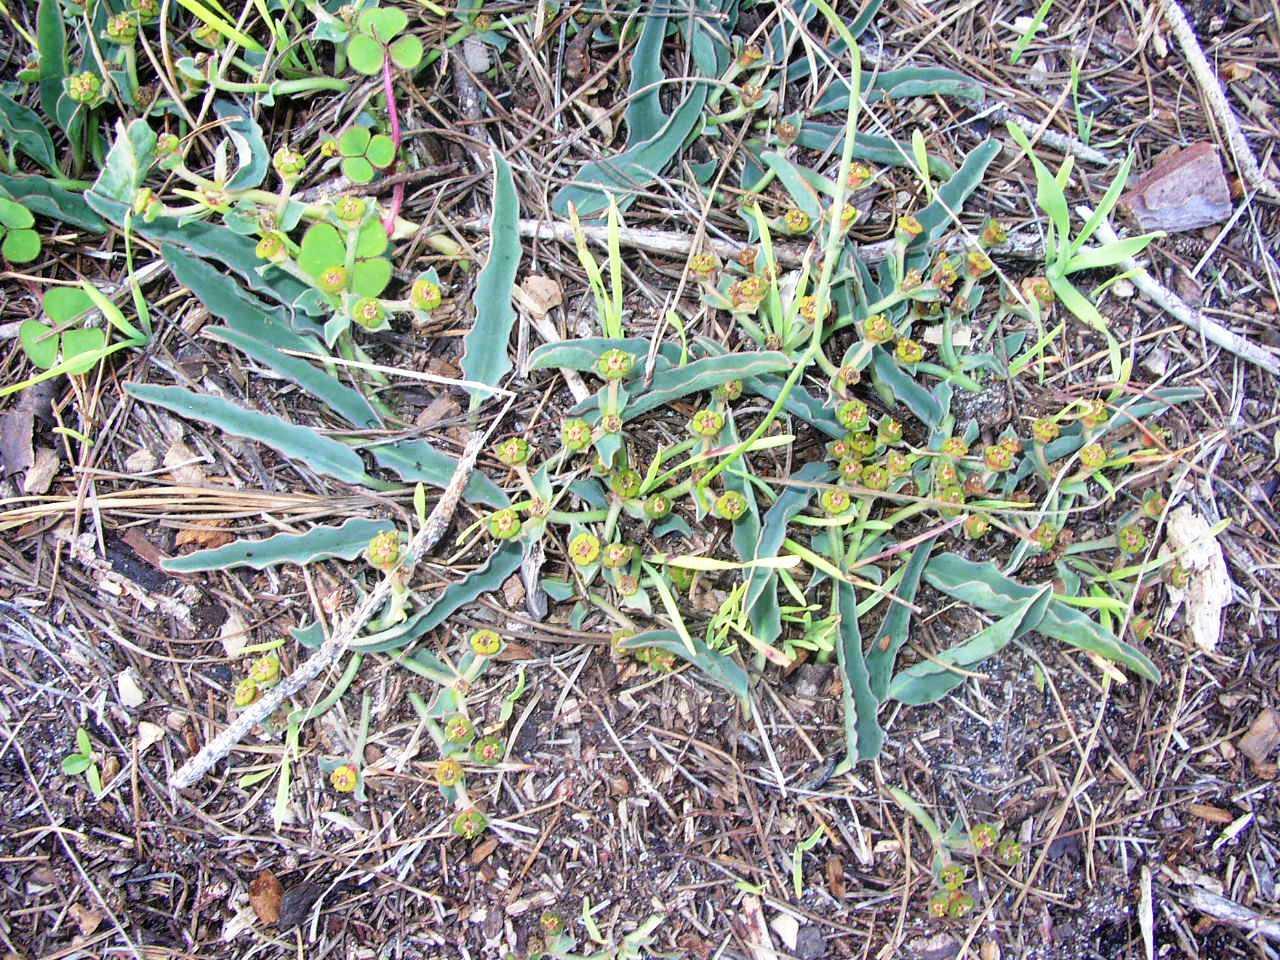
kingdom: Plantae
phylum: Tracheophyta
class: Magnoliopsida
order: Malpighiales
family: Euphorbiaceae
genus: Euphorbia
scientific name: Euphorbia tuberosa
